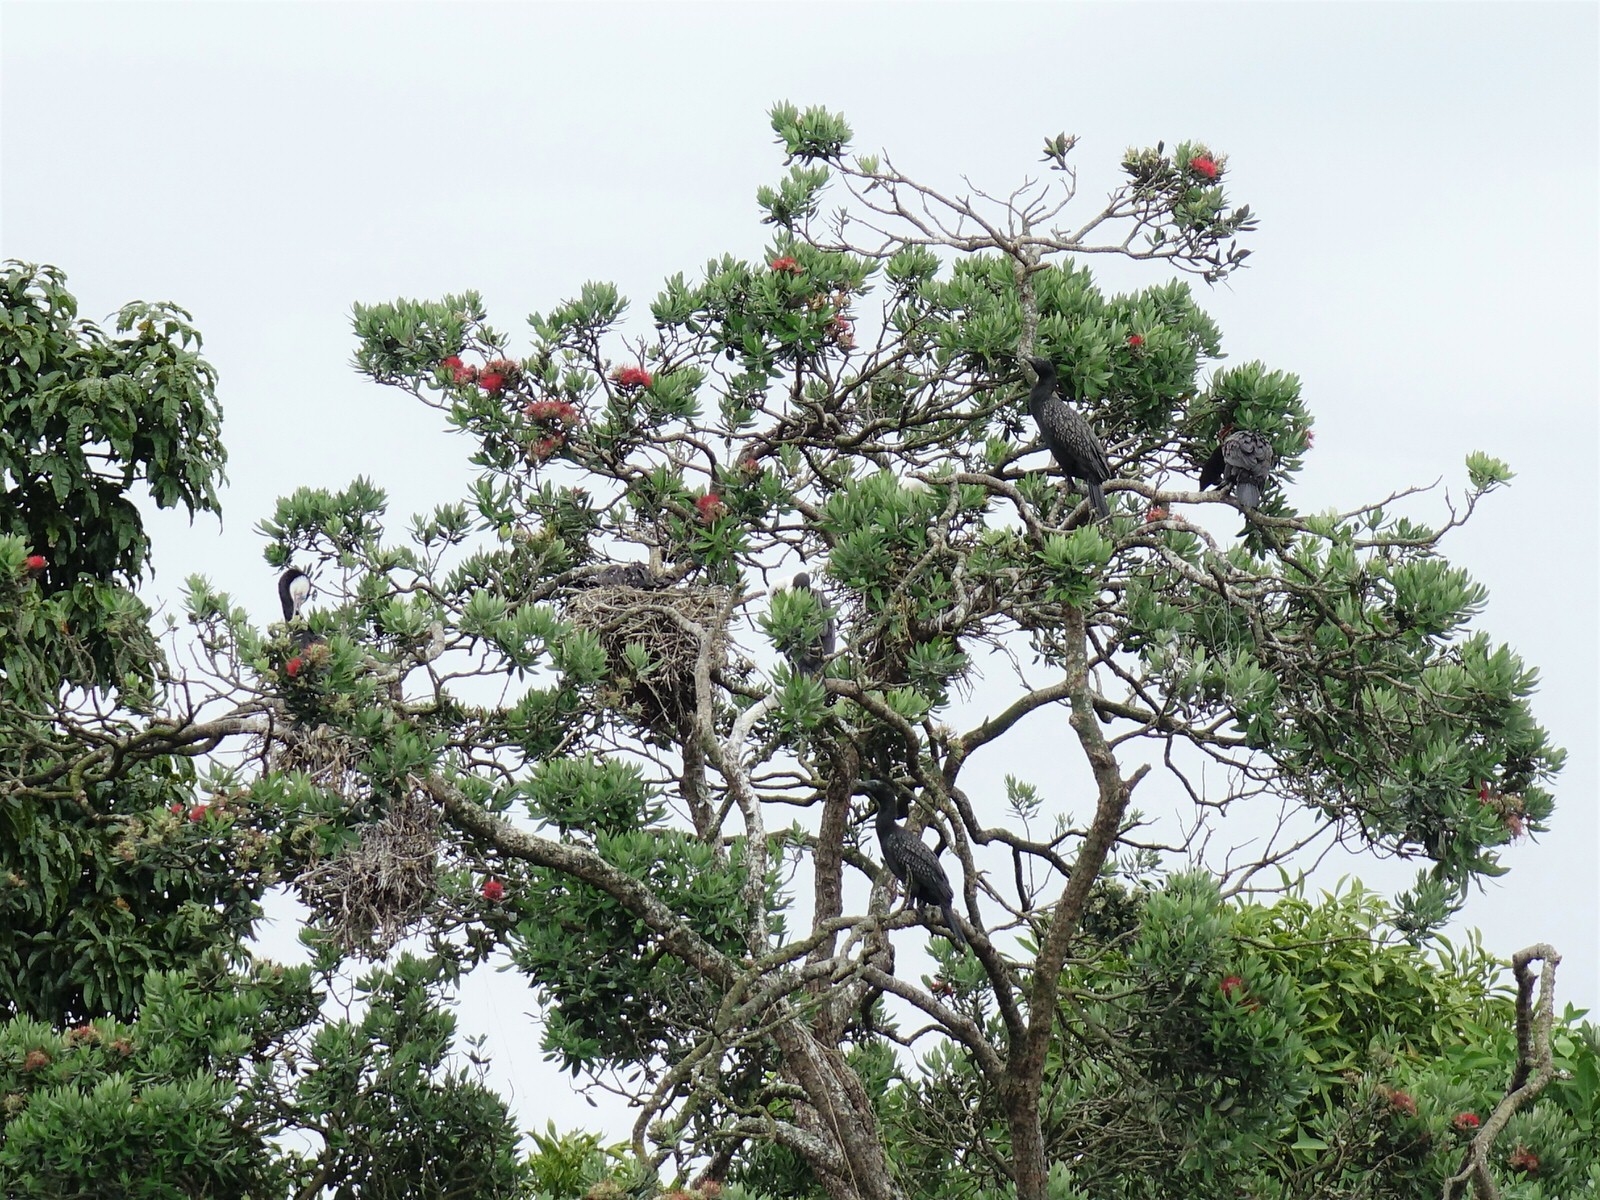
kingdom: Animalia
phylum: Chordata
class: Aves
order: Suliformes
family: Phalacrocoracidae
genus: Phalacrocorax
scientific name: Phalacrocorax sulcirostris
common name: Little black cormorant
